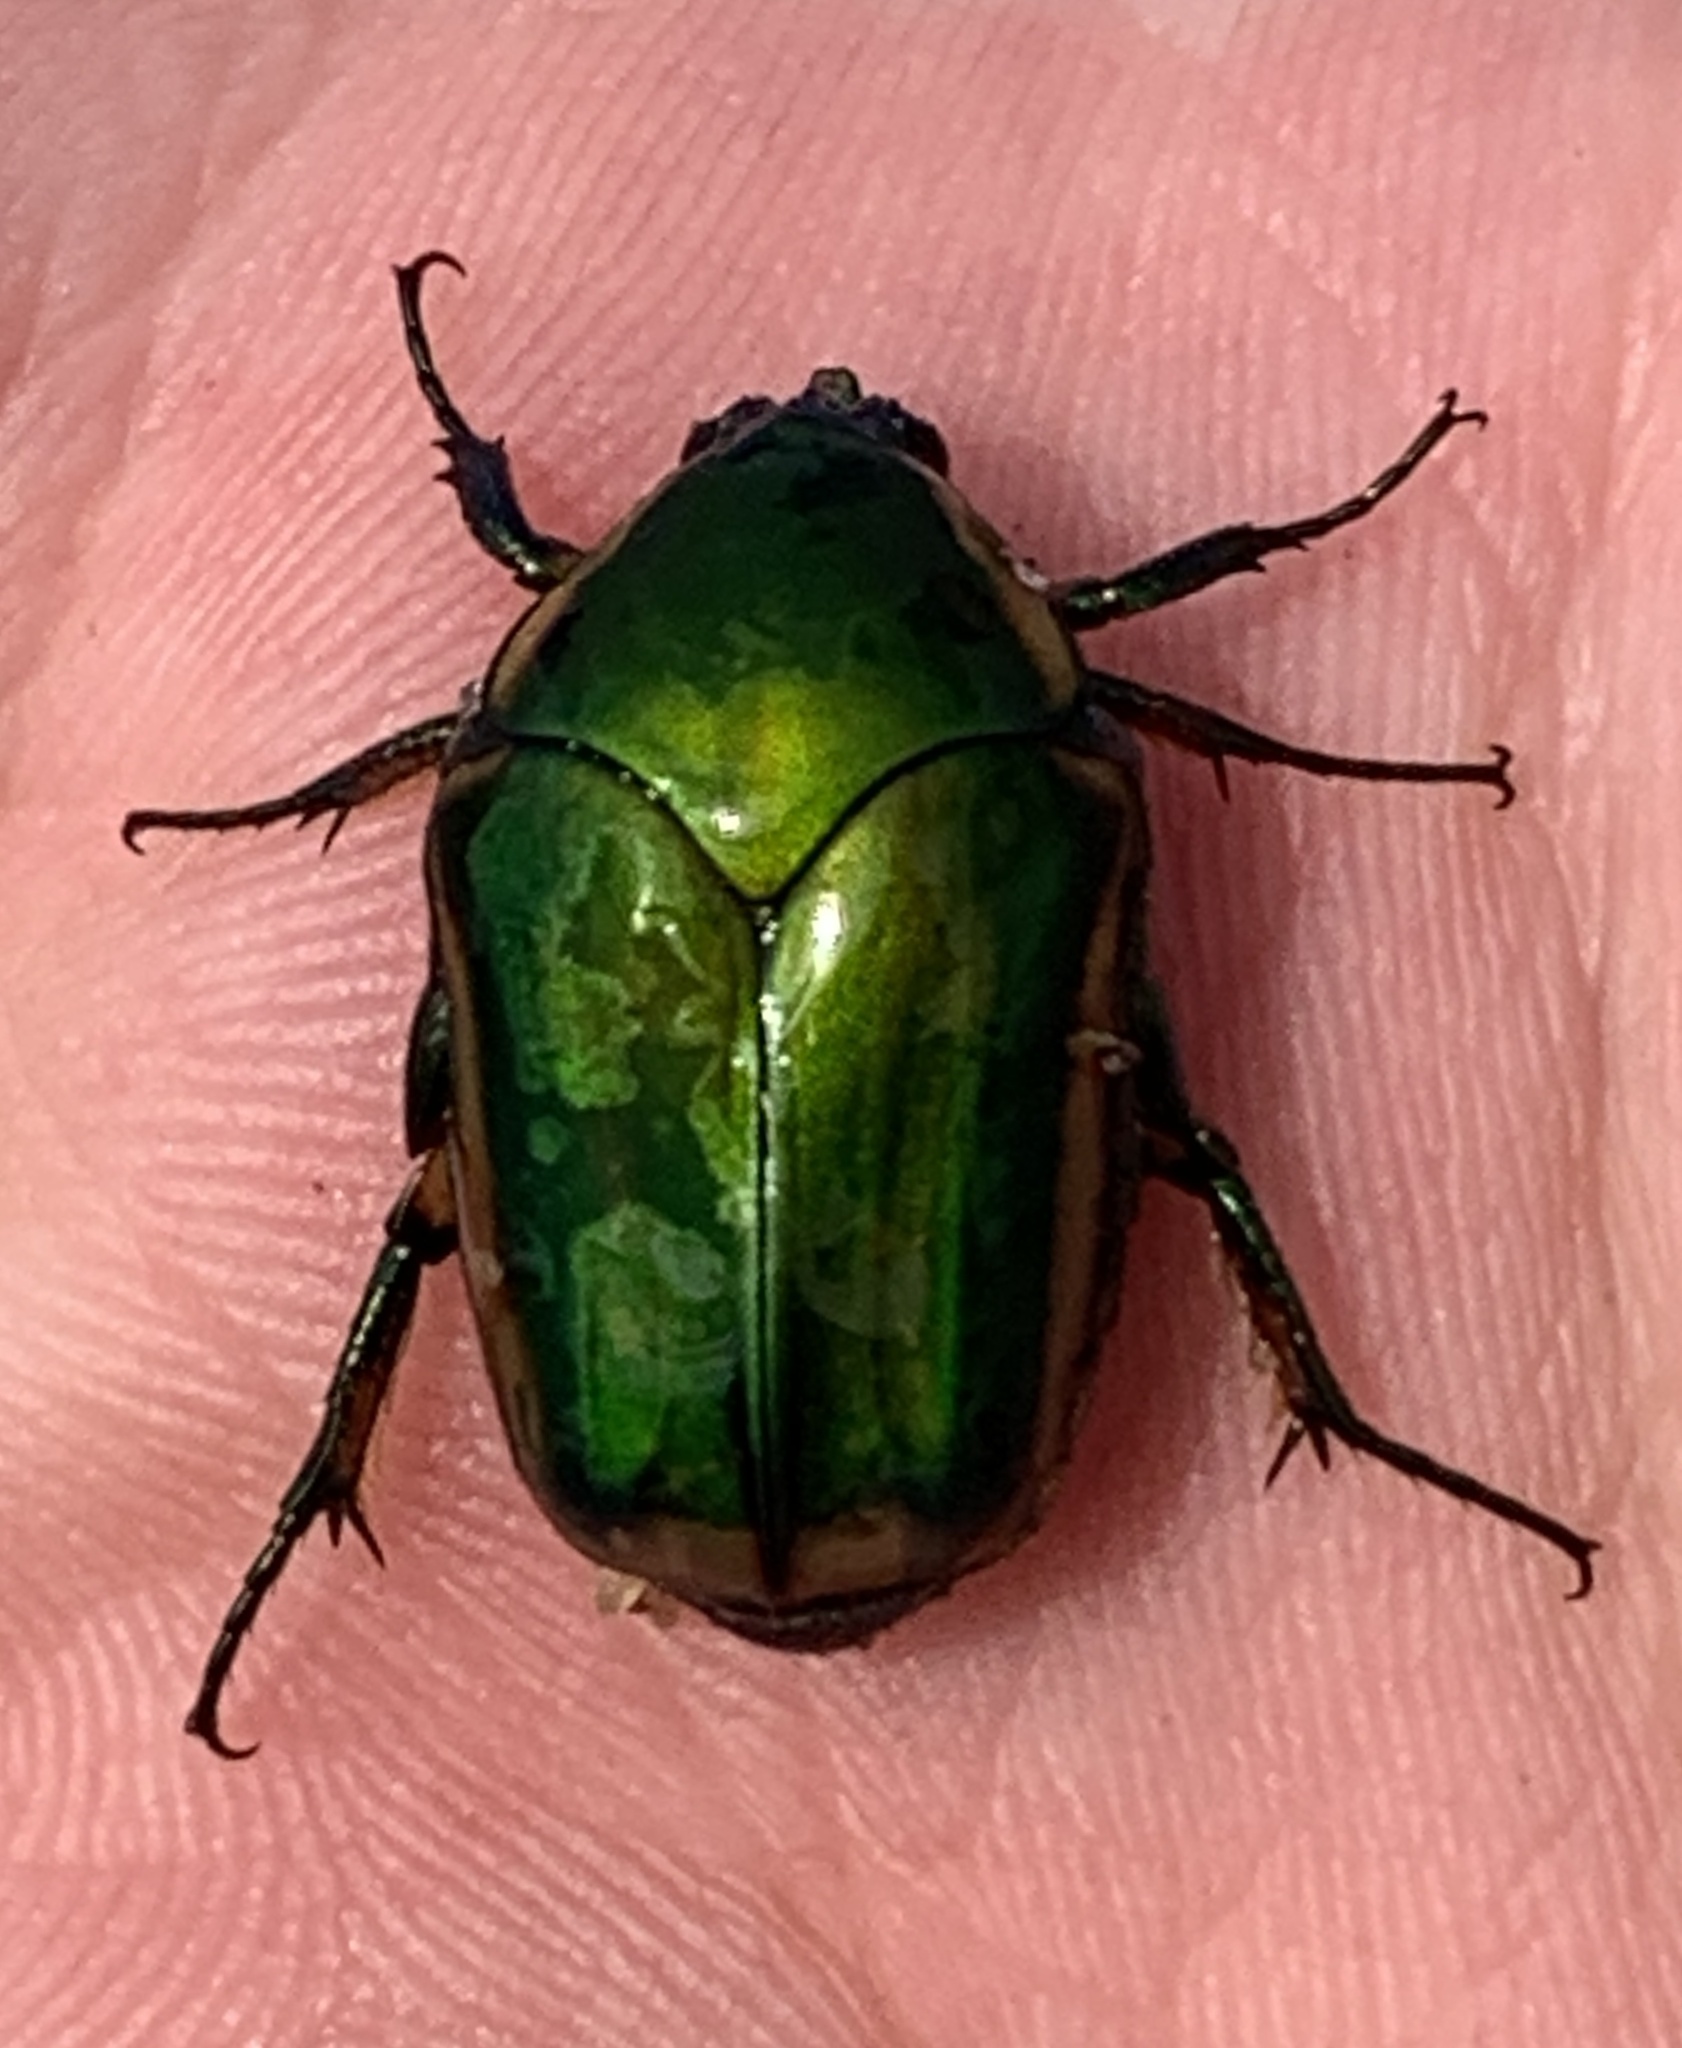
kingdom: Animalia
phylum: Arthropoda
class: Insecta
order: Coleoptera
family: Scarabaeidae
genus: Cotinis
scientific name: Cotinis nitida
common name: Common green june beetle
